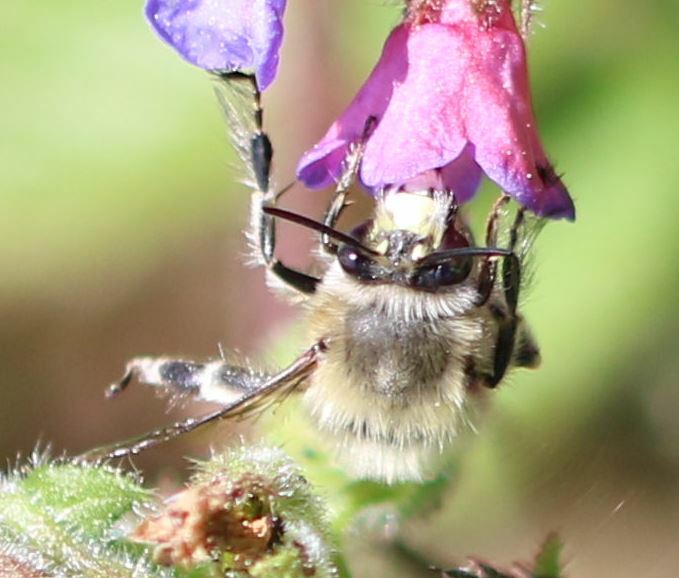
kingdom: Animalia
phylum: Arthropoda
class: Insecta
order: Hymenoptera
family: Apidae
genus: Anthophora
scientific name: Anthophora plumipes
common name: Hairy-footed flower bee
